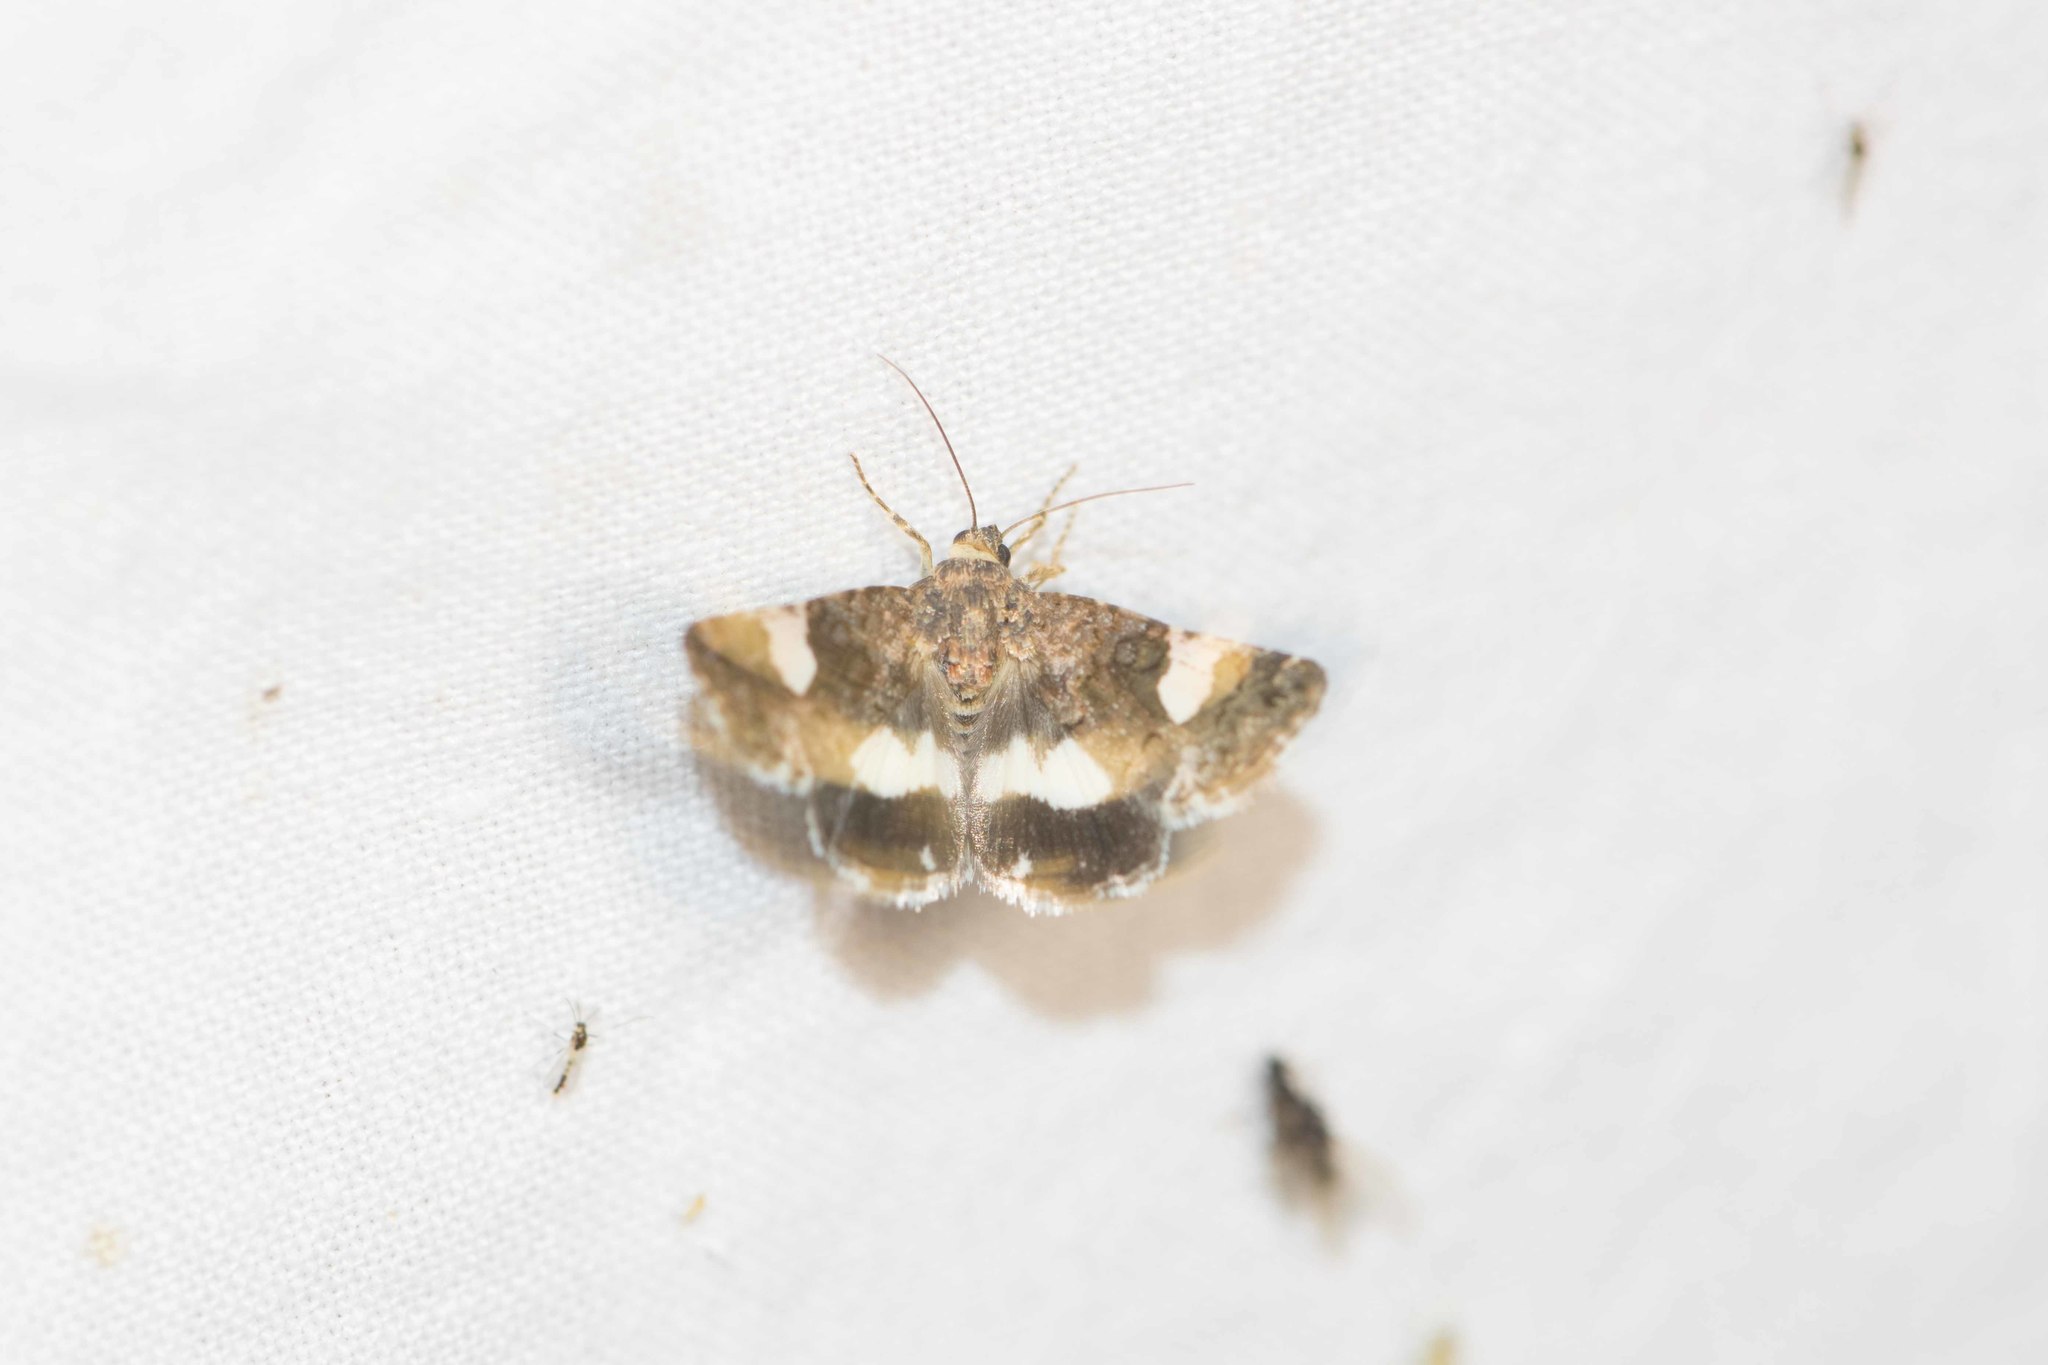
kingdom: Animalia
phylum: Arthropoda
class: Insecta
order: Lepidoptera
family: Erebidae
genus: Tyta
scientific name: Tyta luctuosa
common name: Four-spotted
